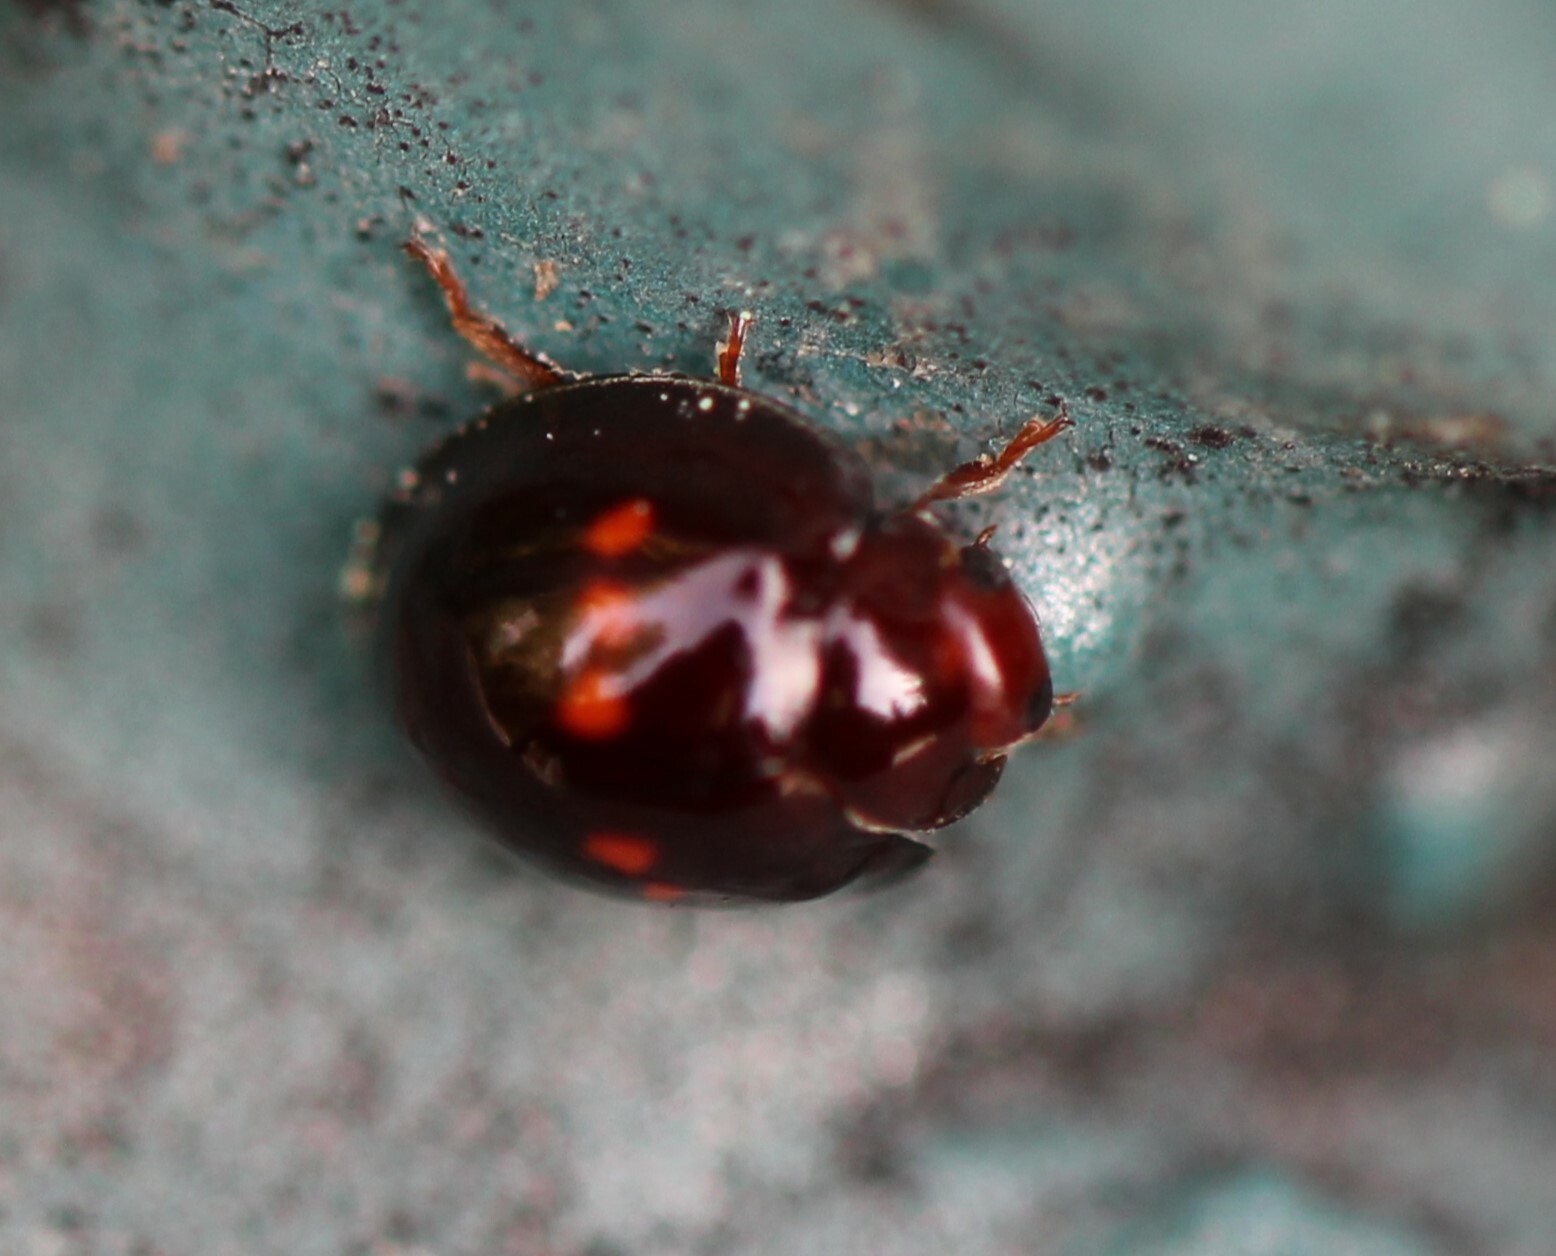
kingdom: Animalia
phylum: Arthropoda
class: Insecta
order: Coleoptera
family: Coccinellidae
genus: Chilocorus
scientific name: Chilocorus bipustulatus
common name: Heather ladybird
